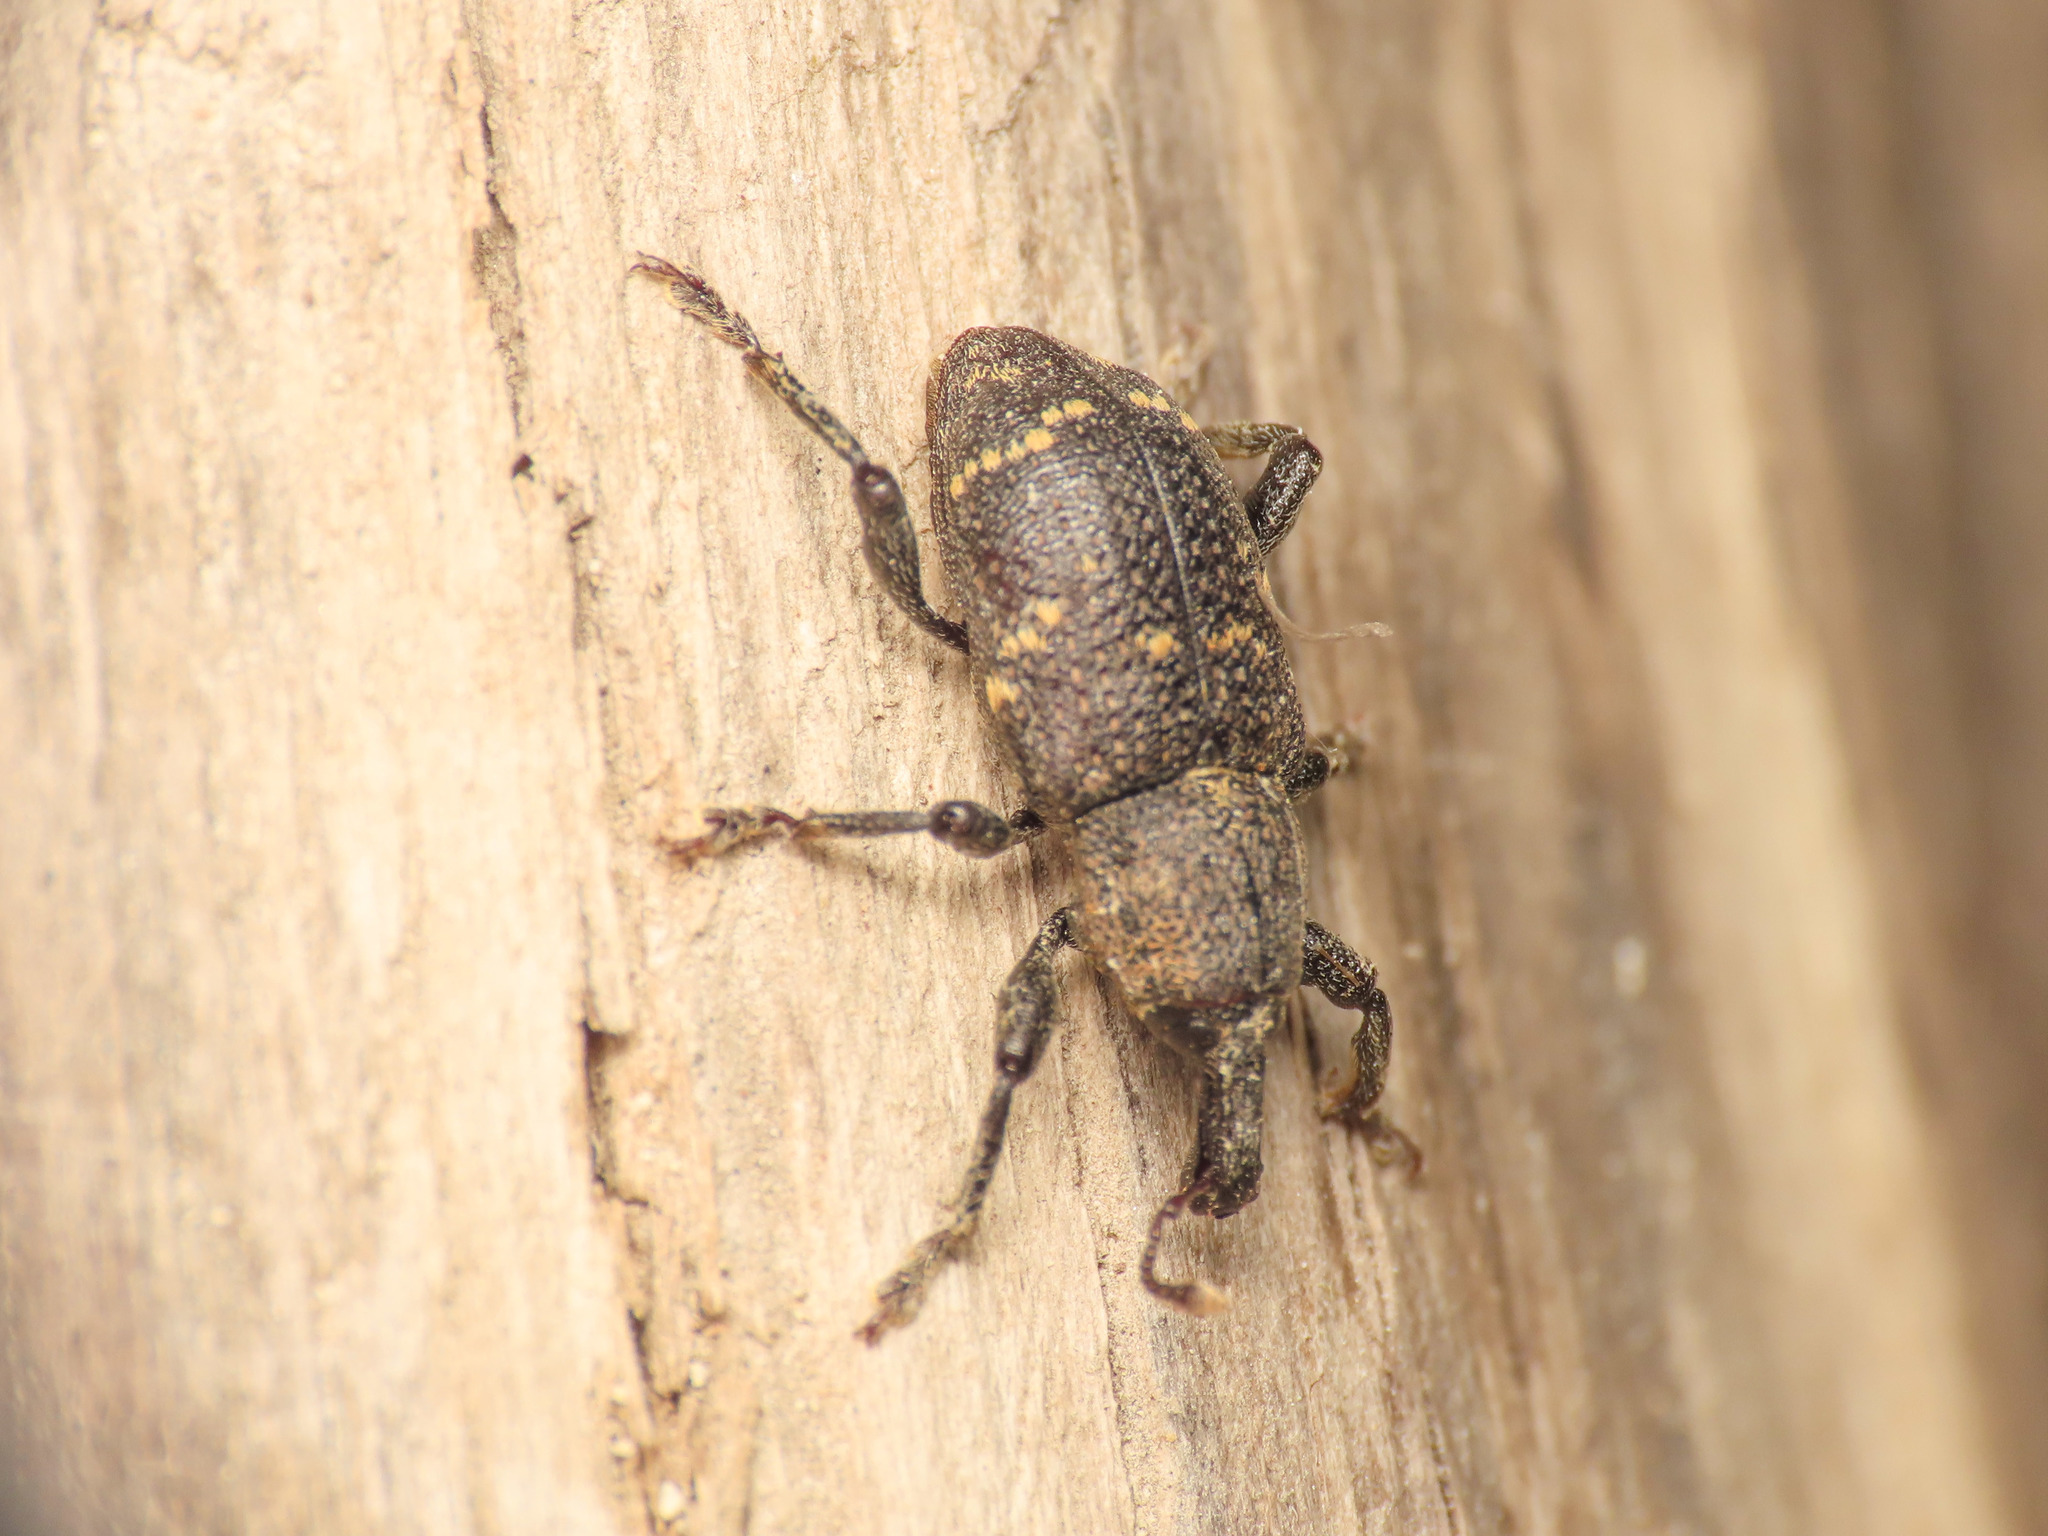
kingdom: Animalia
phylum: Arthropoda
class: Insecta
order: Coleoptera
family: Curculionidae
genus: Hylobius
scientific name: Hylobius abietis
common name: Large pine weevil
